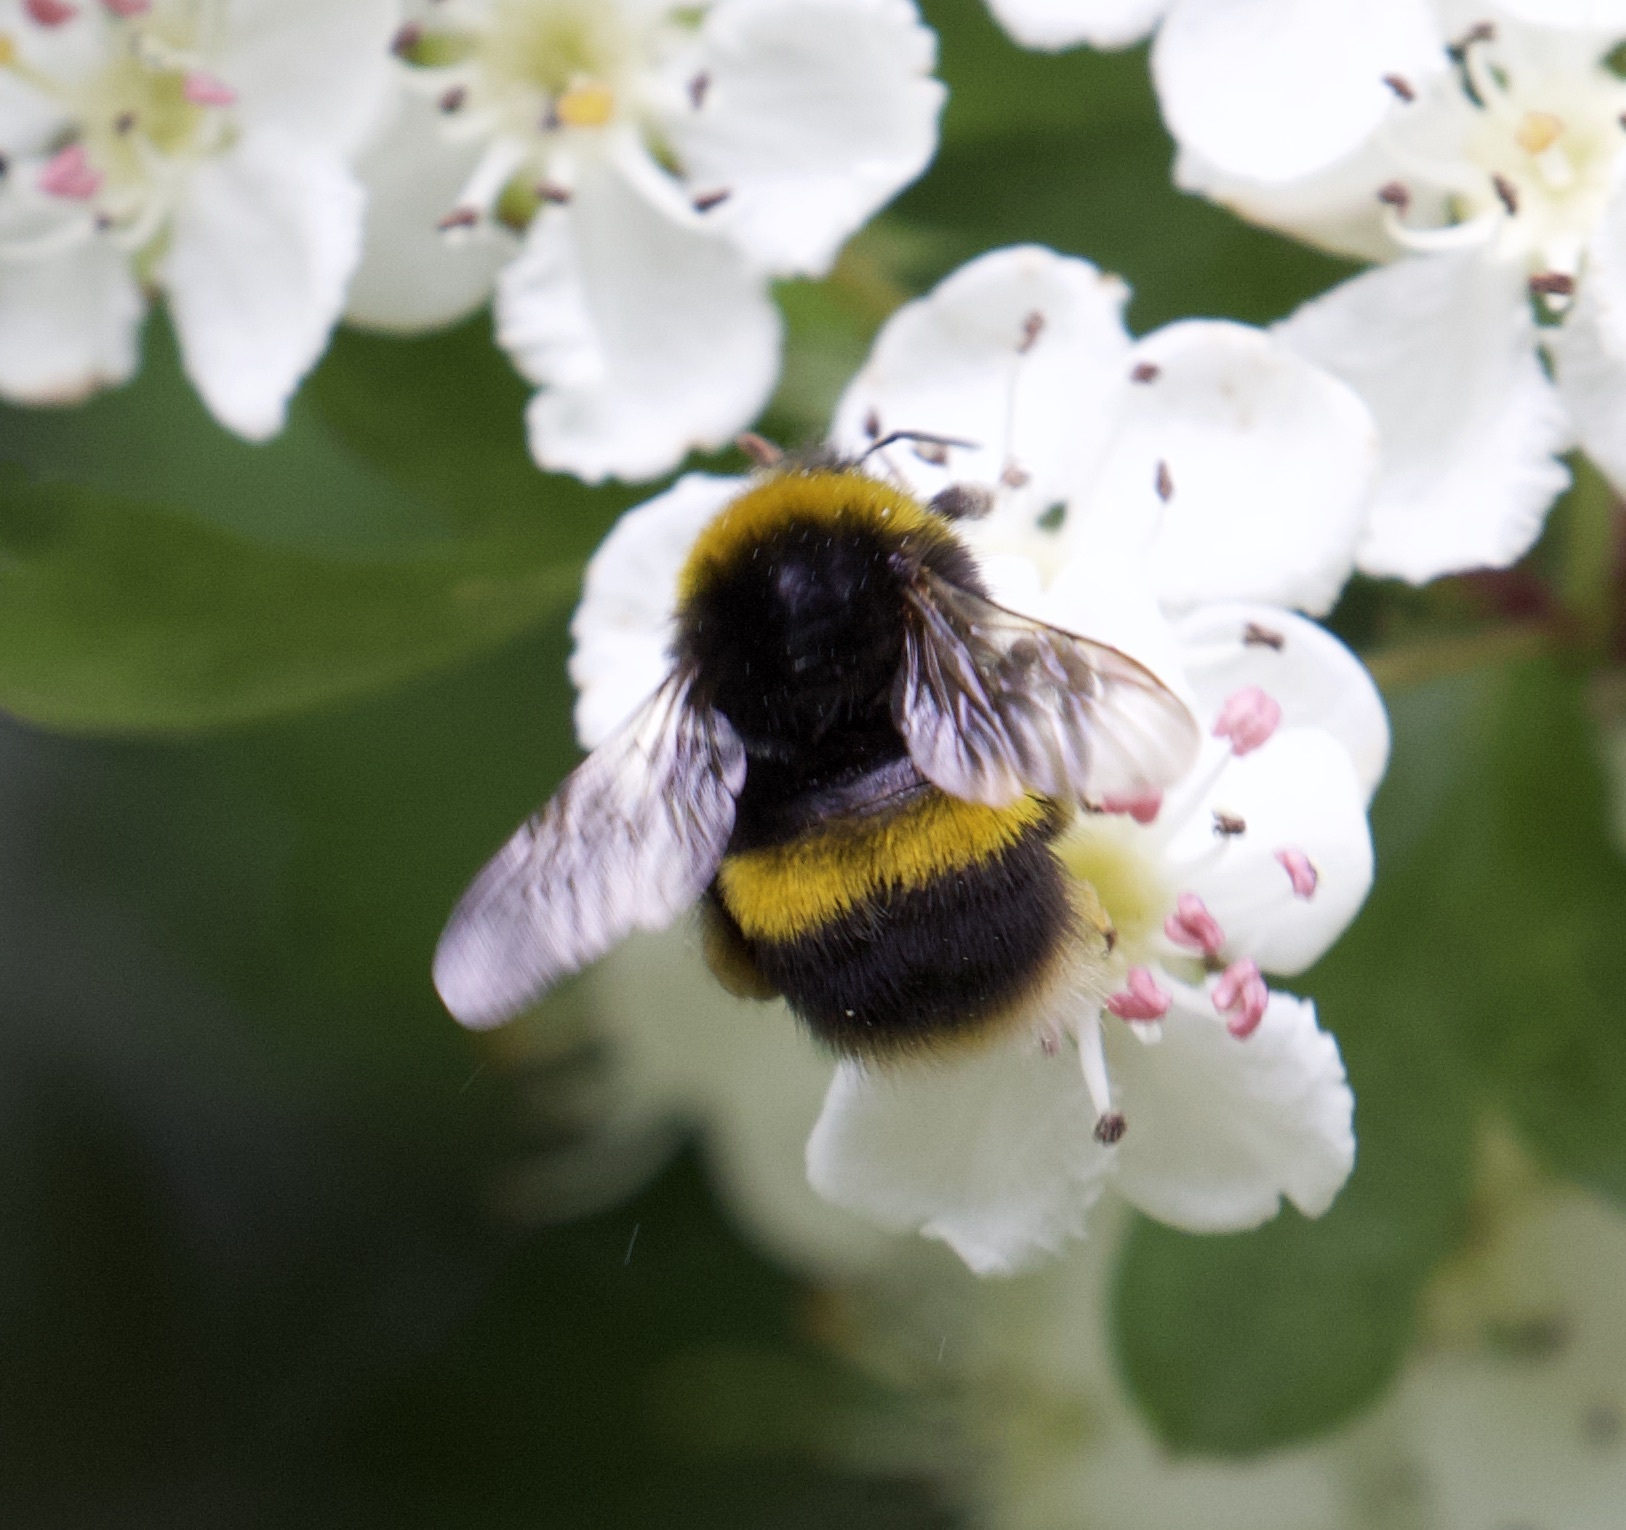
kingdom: Animalia
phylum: Arthropoda
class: Insecta
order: Hymenoptera
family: Apidae
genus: Bombus
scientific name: Bombus terrestris
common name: Buff-tailed bumblebee
